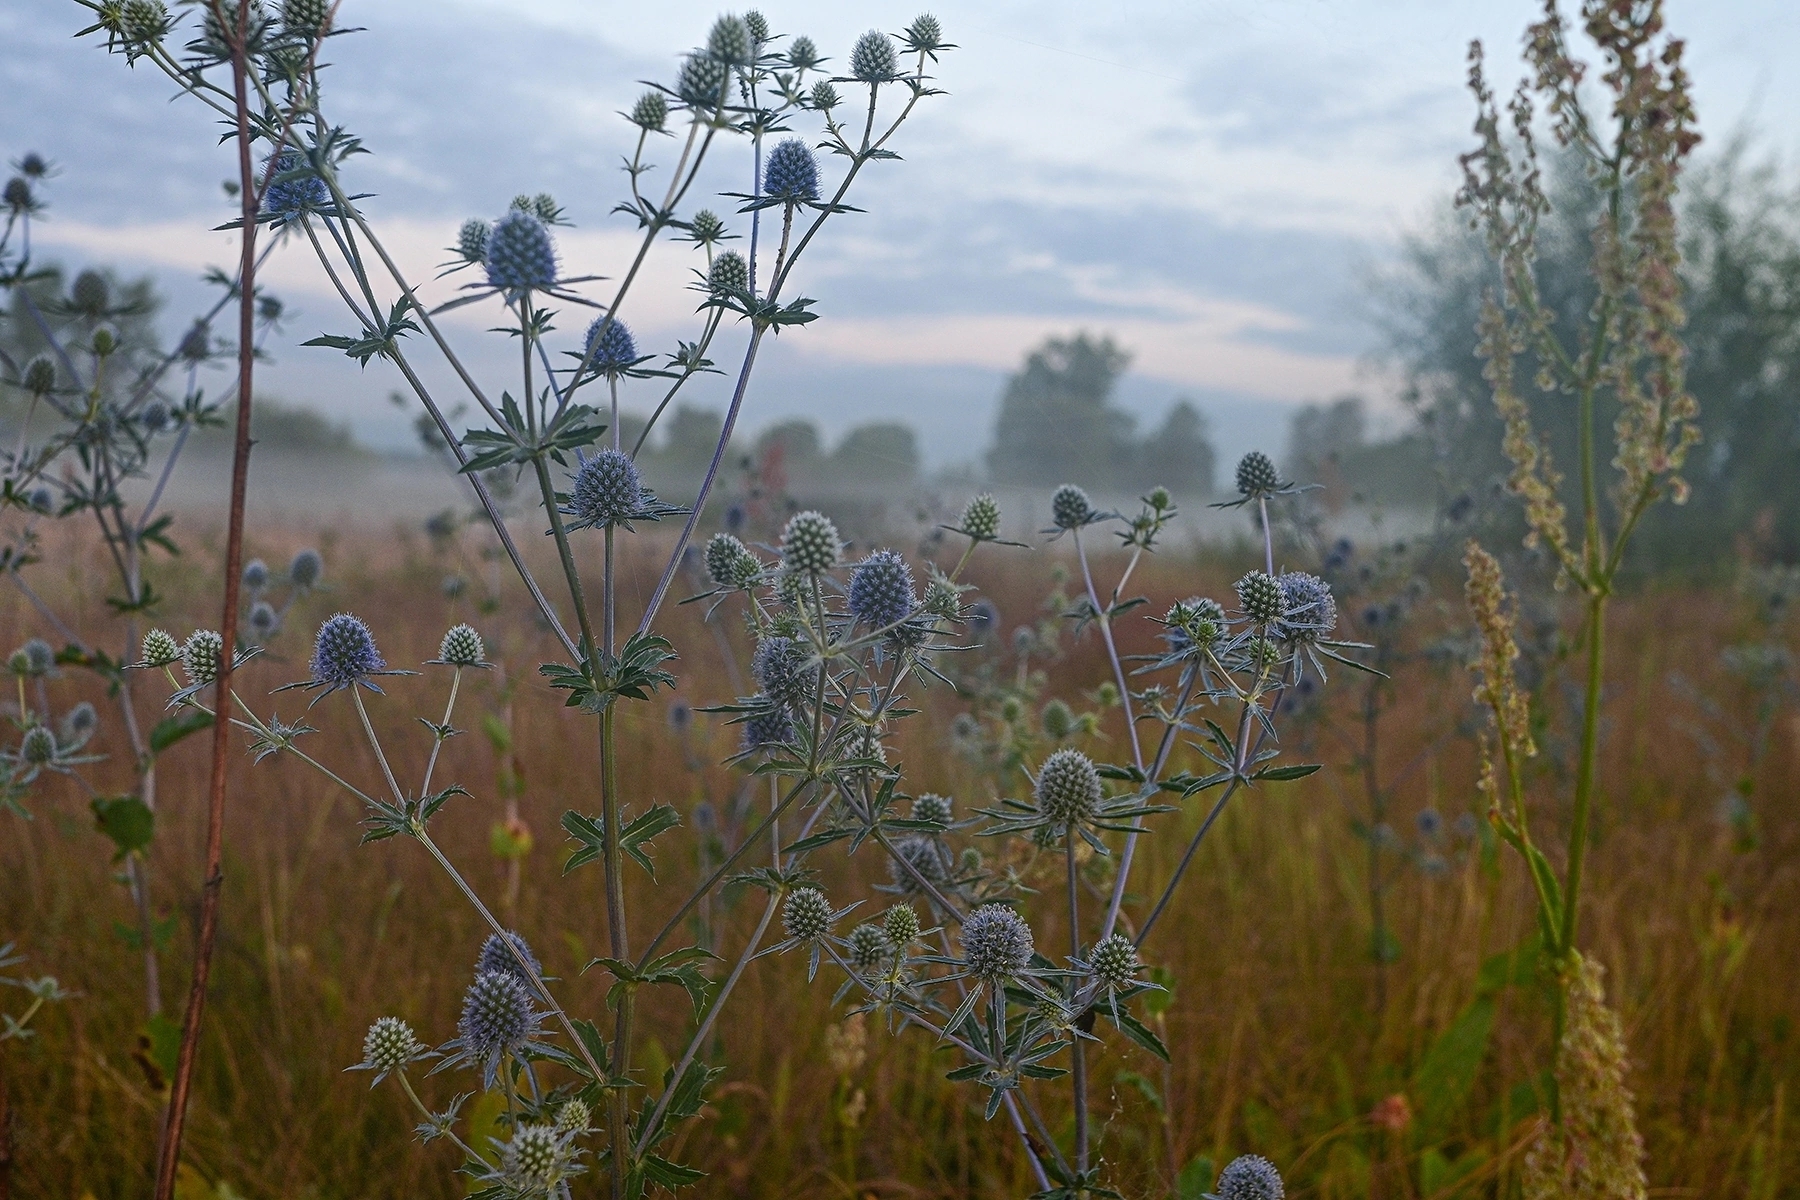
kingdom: Plantae
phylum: Tracheophyta
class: Magnoliopsida
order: Apiales
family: Apiaceae
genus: Eryngium
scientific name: Eryngium planum
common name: Blue eryngo
